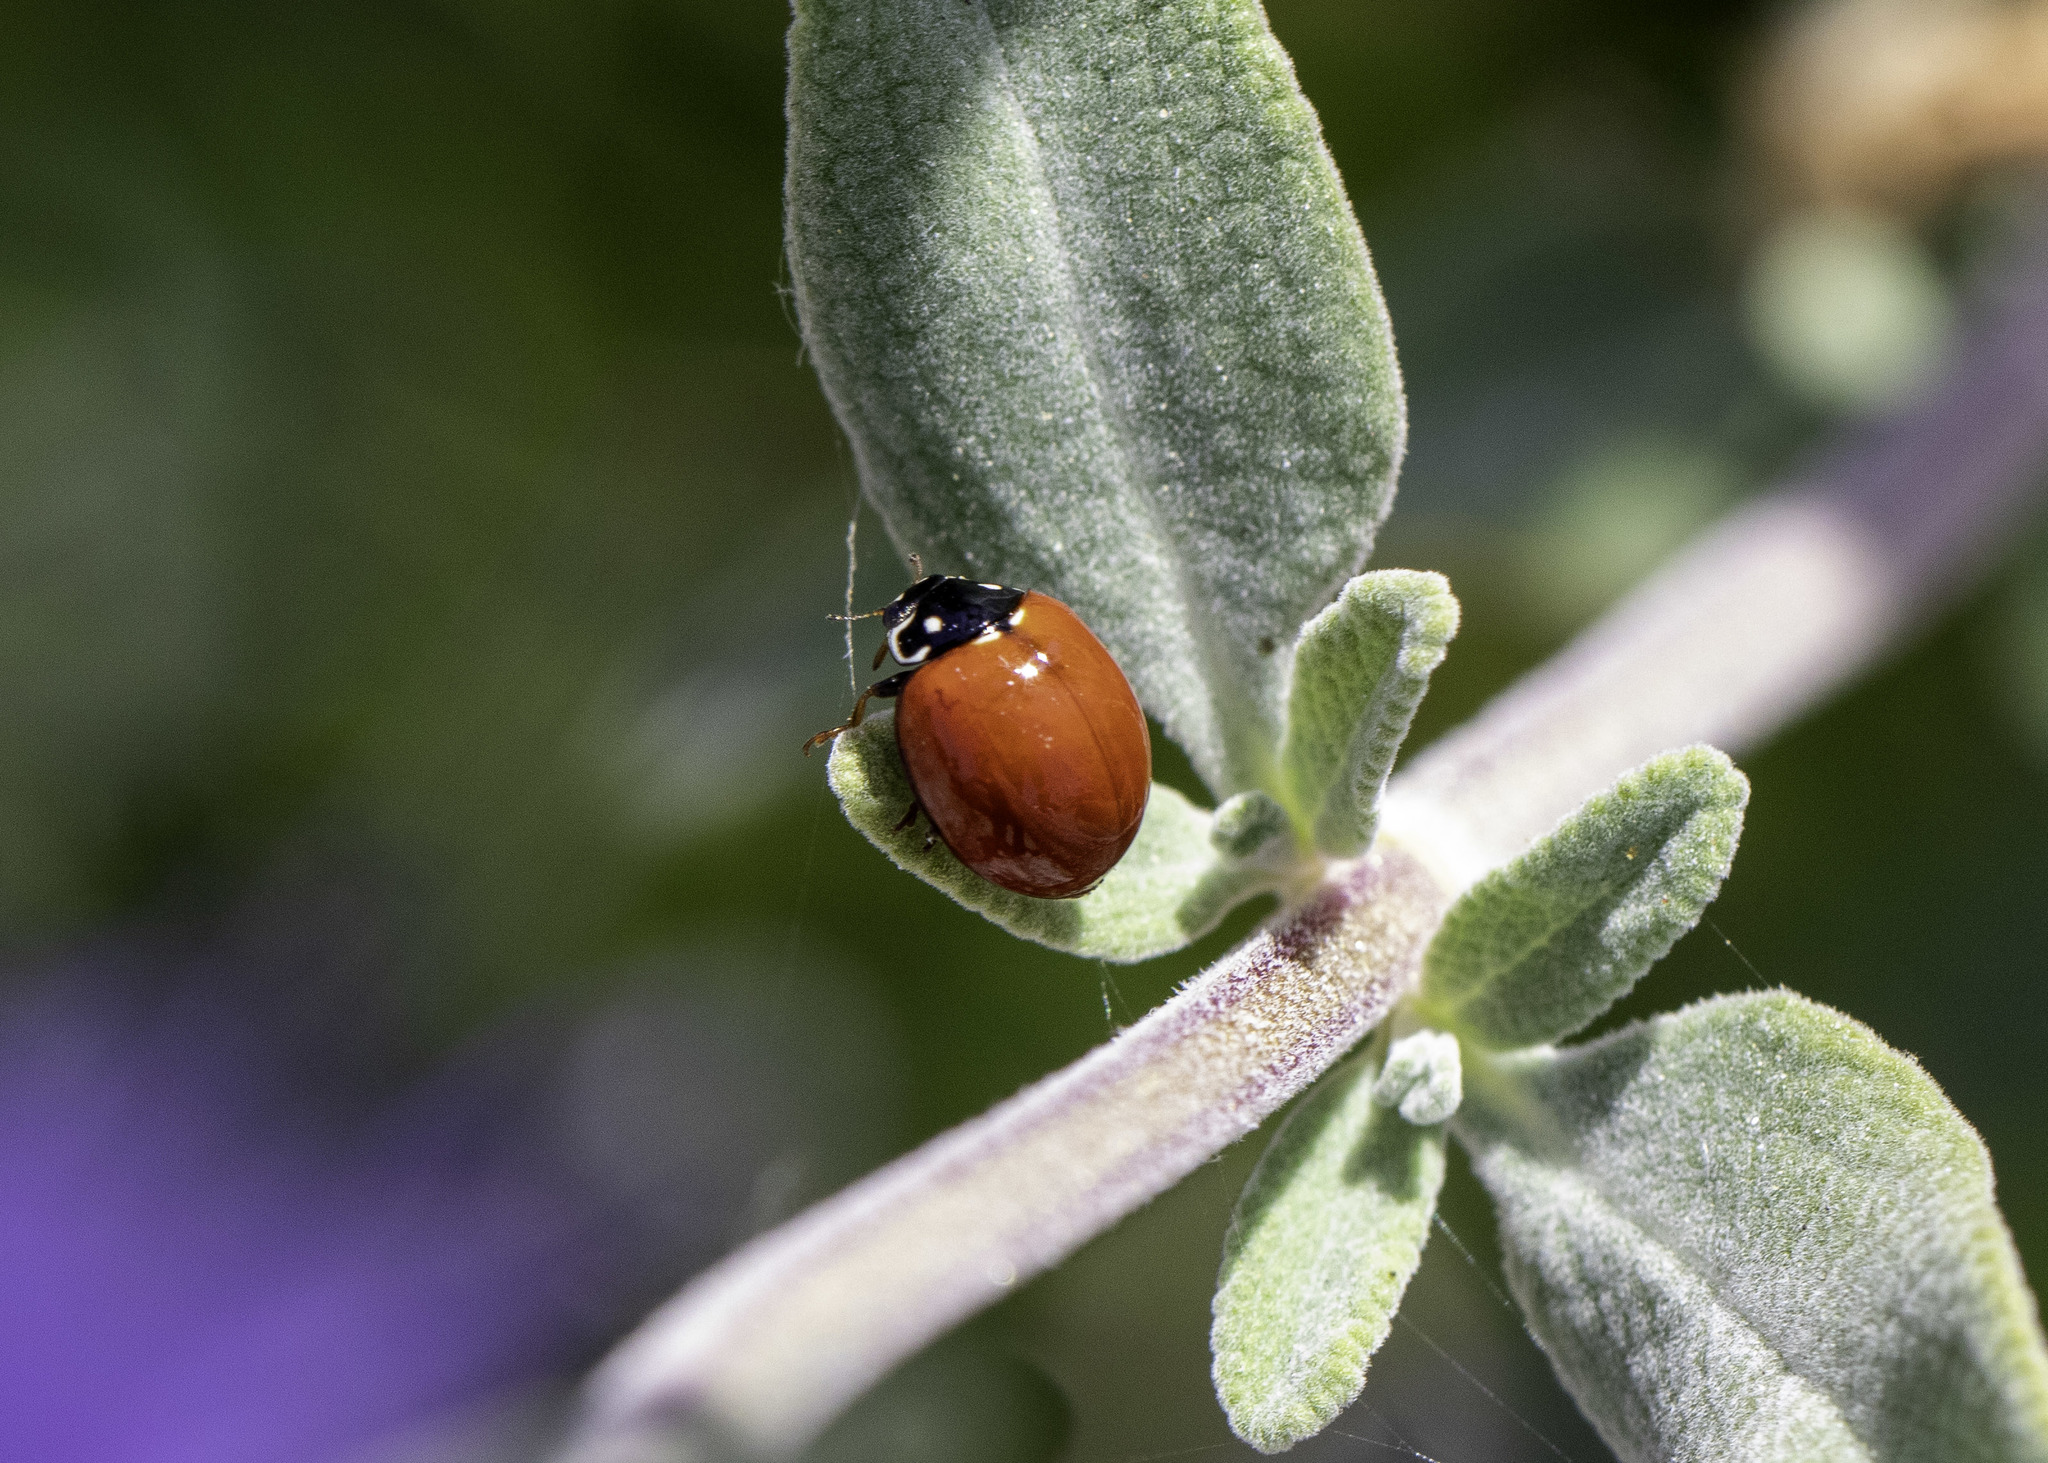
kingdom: Animalia
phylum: Arthropoda
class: Insecta
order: Coleoptera
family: Coccinellidae
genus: Cycloneda
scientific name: Cycloneda sanguinea
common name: Ladybird beetle
